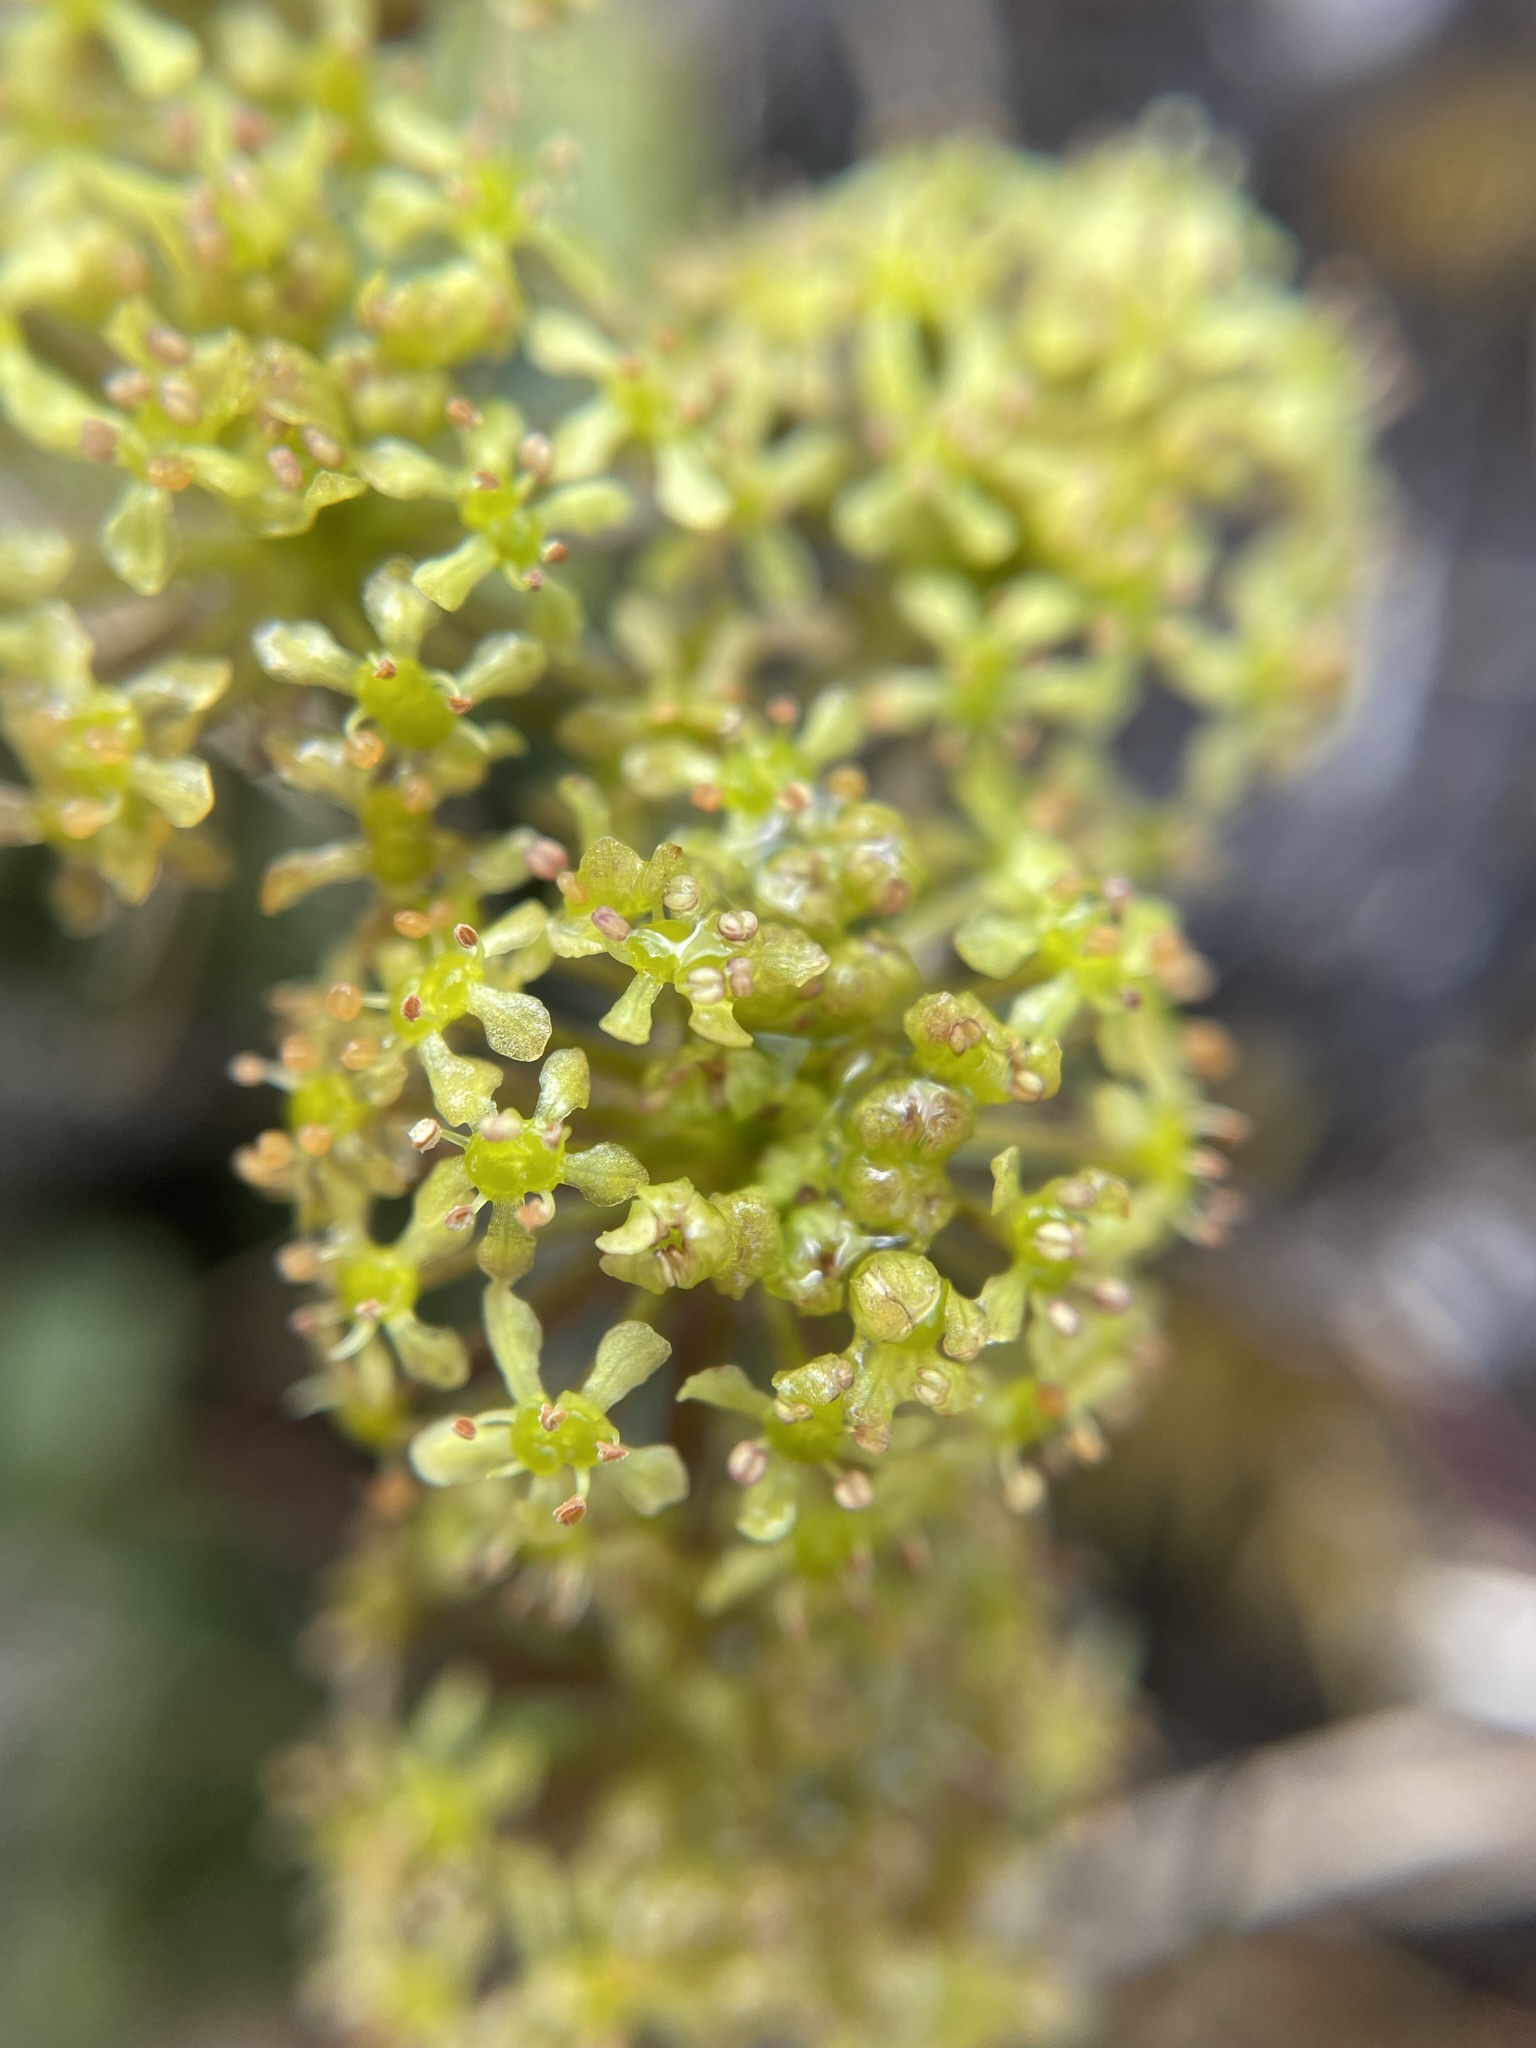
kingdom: Plantae
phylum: Tracheophyta
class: Magnoliopsida
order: Apiales
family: Apiaceae
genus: Diplaspis
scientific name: Diplaspis cordifolia
